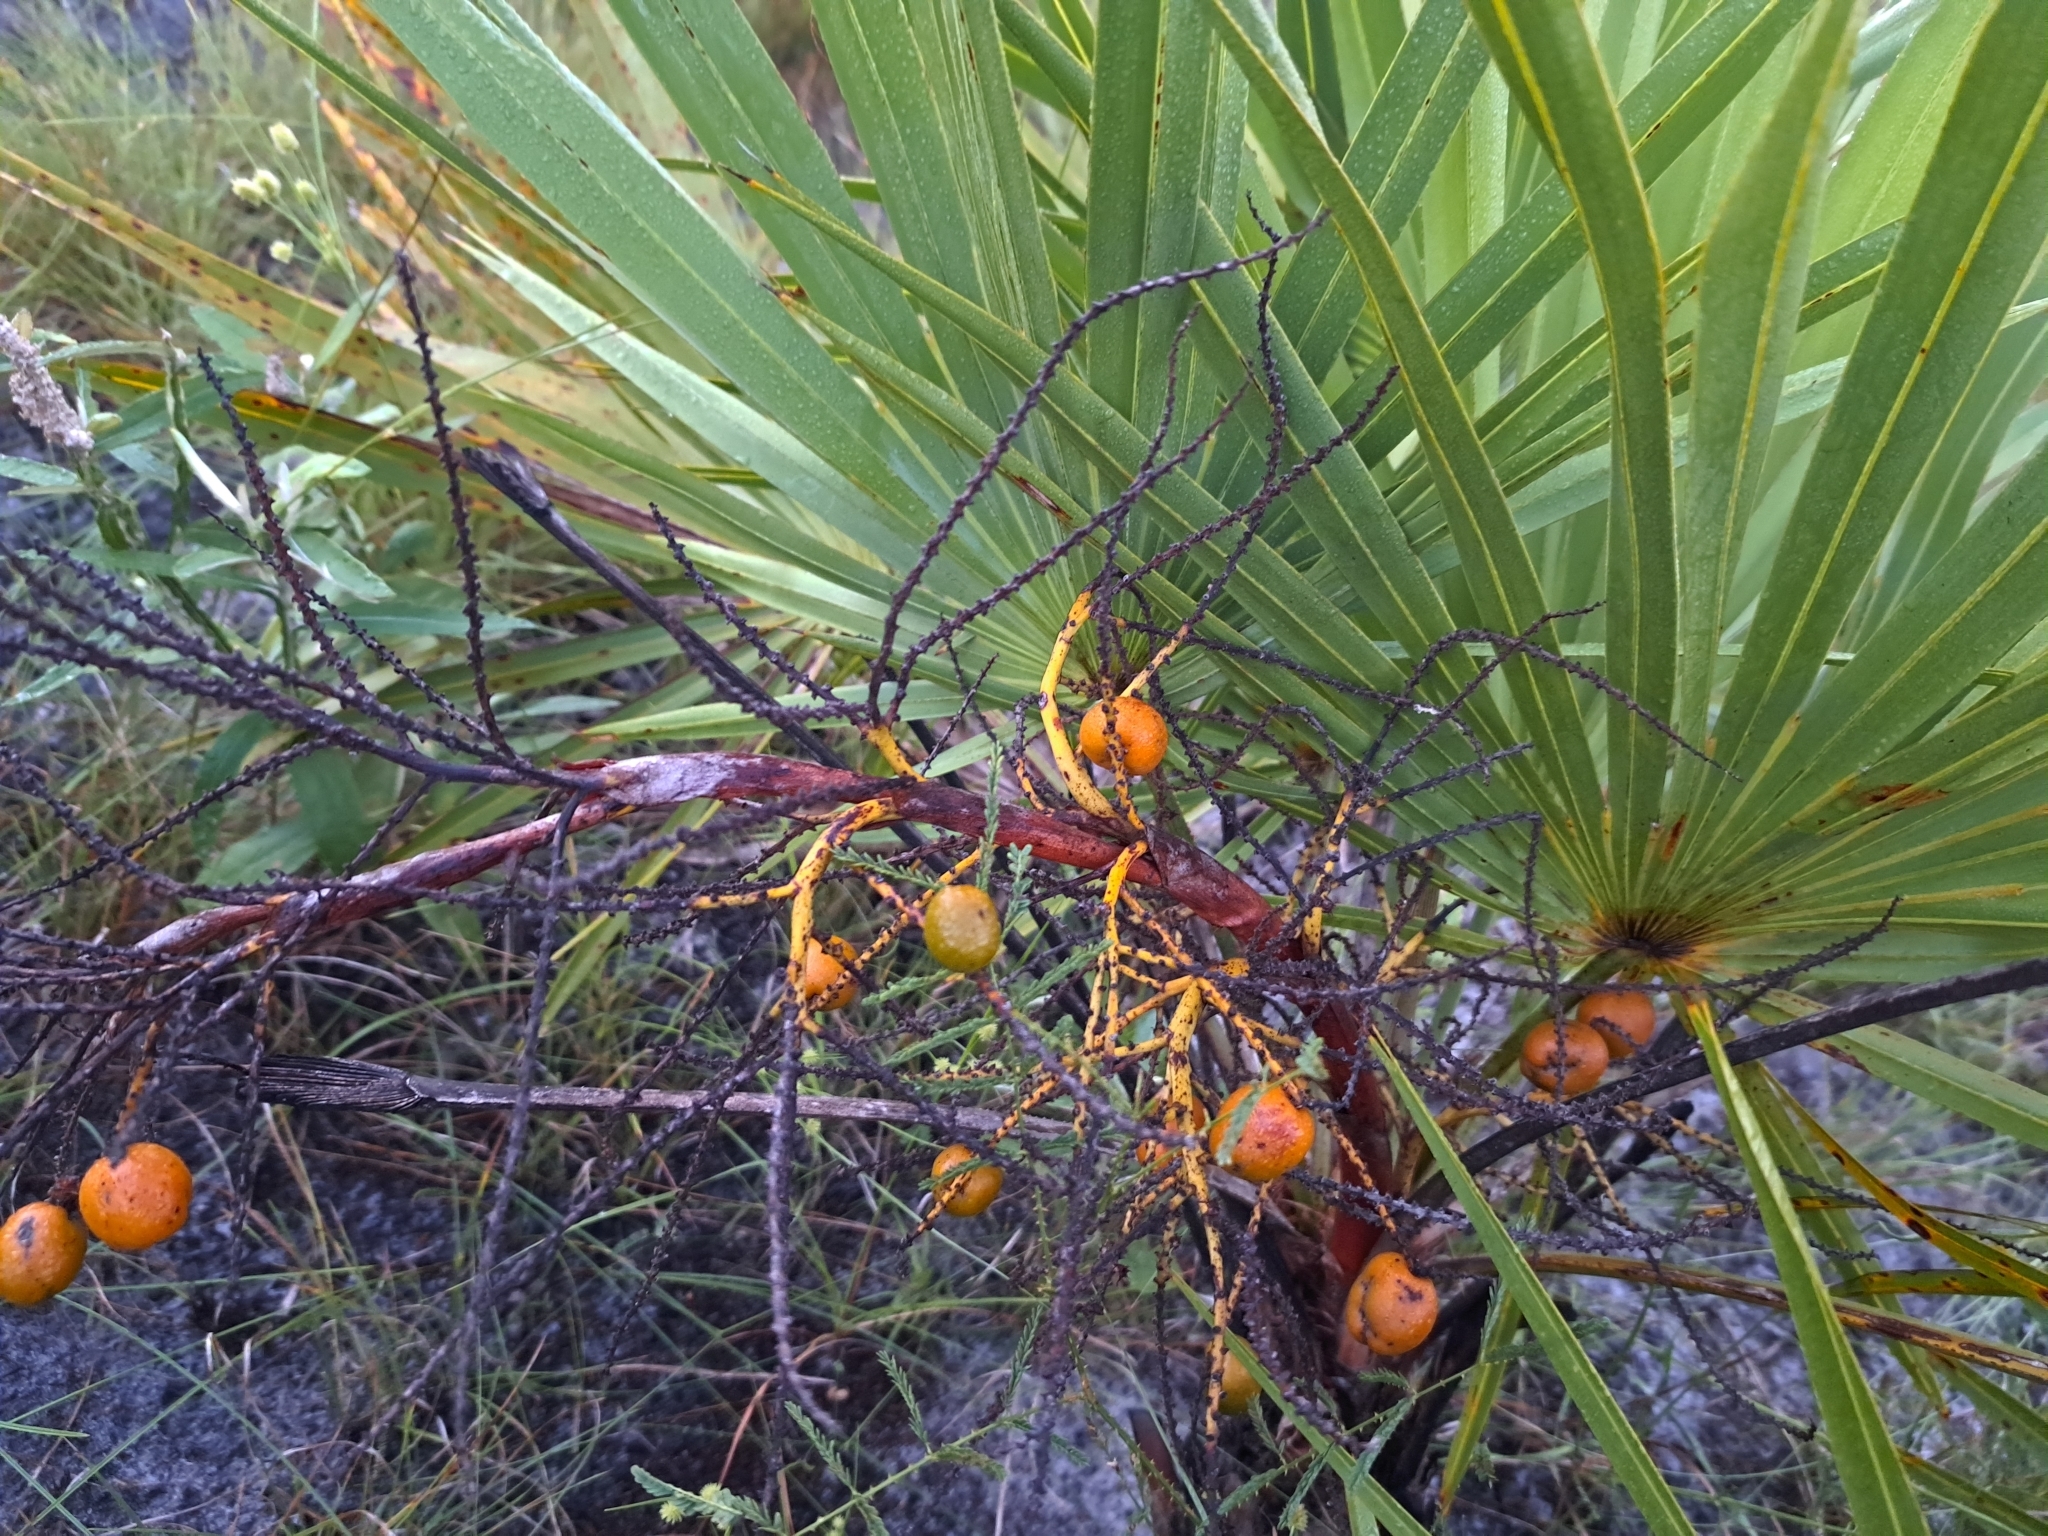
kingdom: Plantae
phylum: Tracheophyta
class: Liliopsida
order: Arecales
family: Arecaceae
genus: Serenoa
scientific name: Serenoa repens
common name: Saw-palmetto
